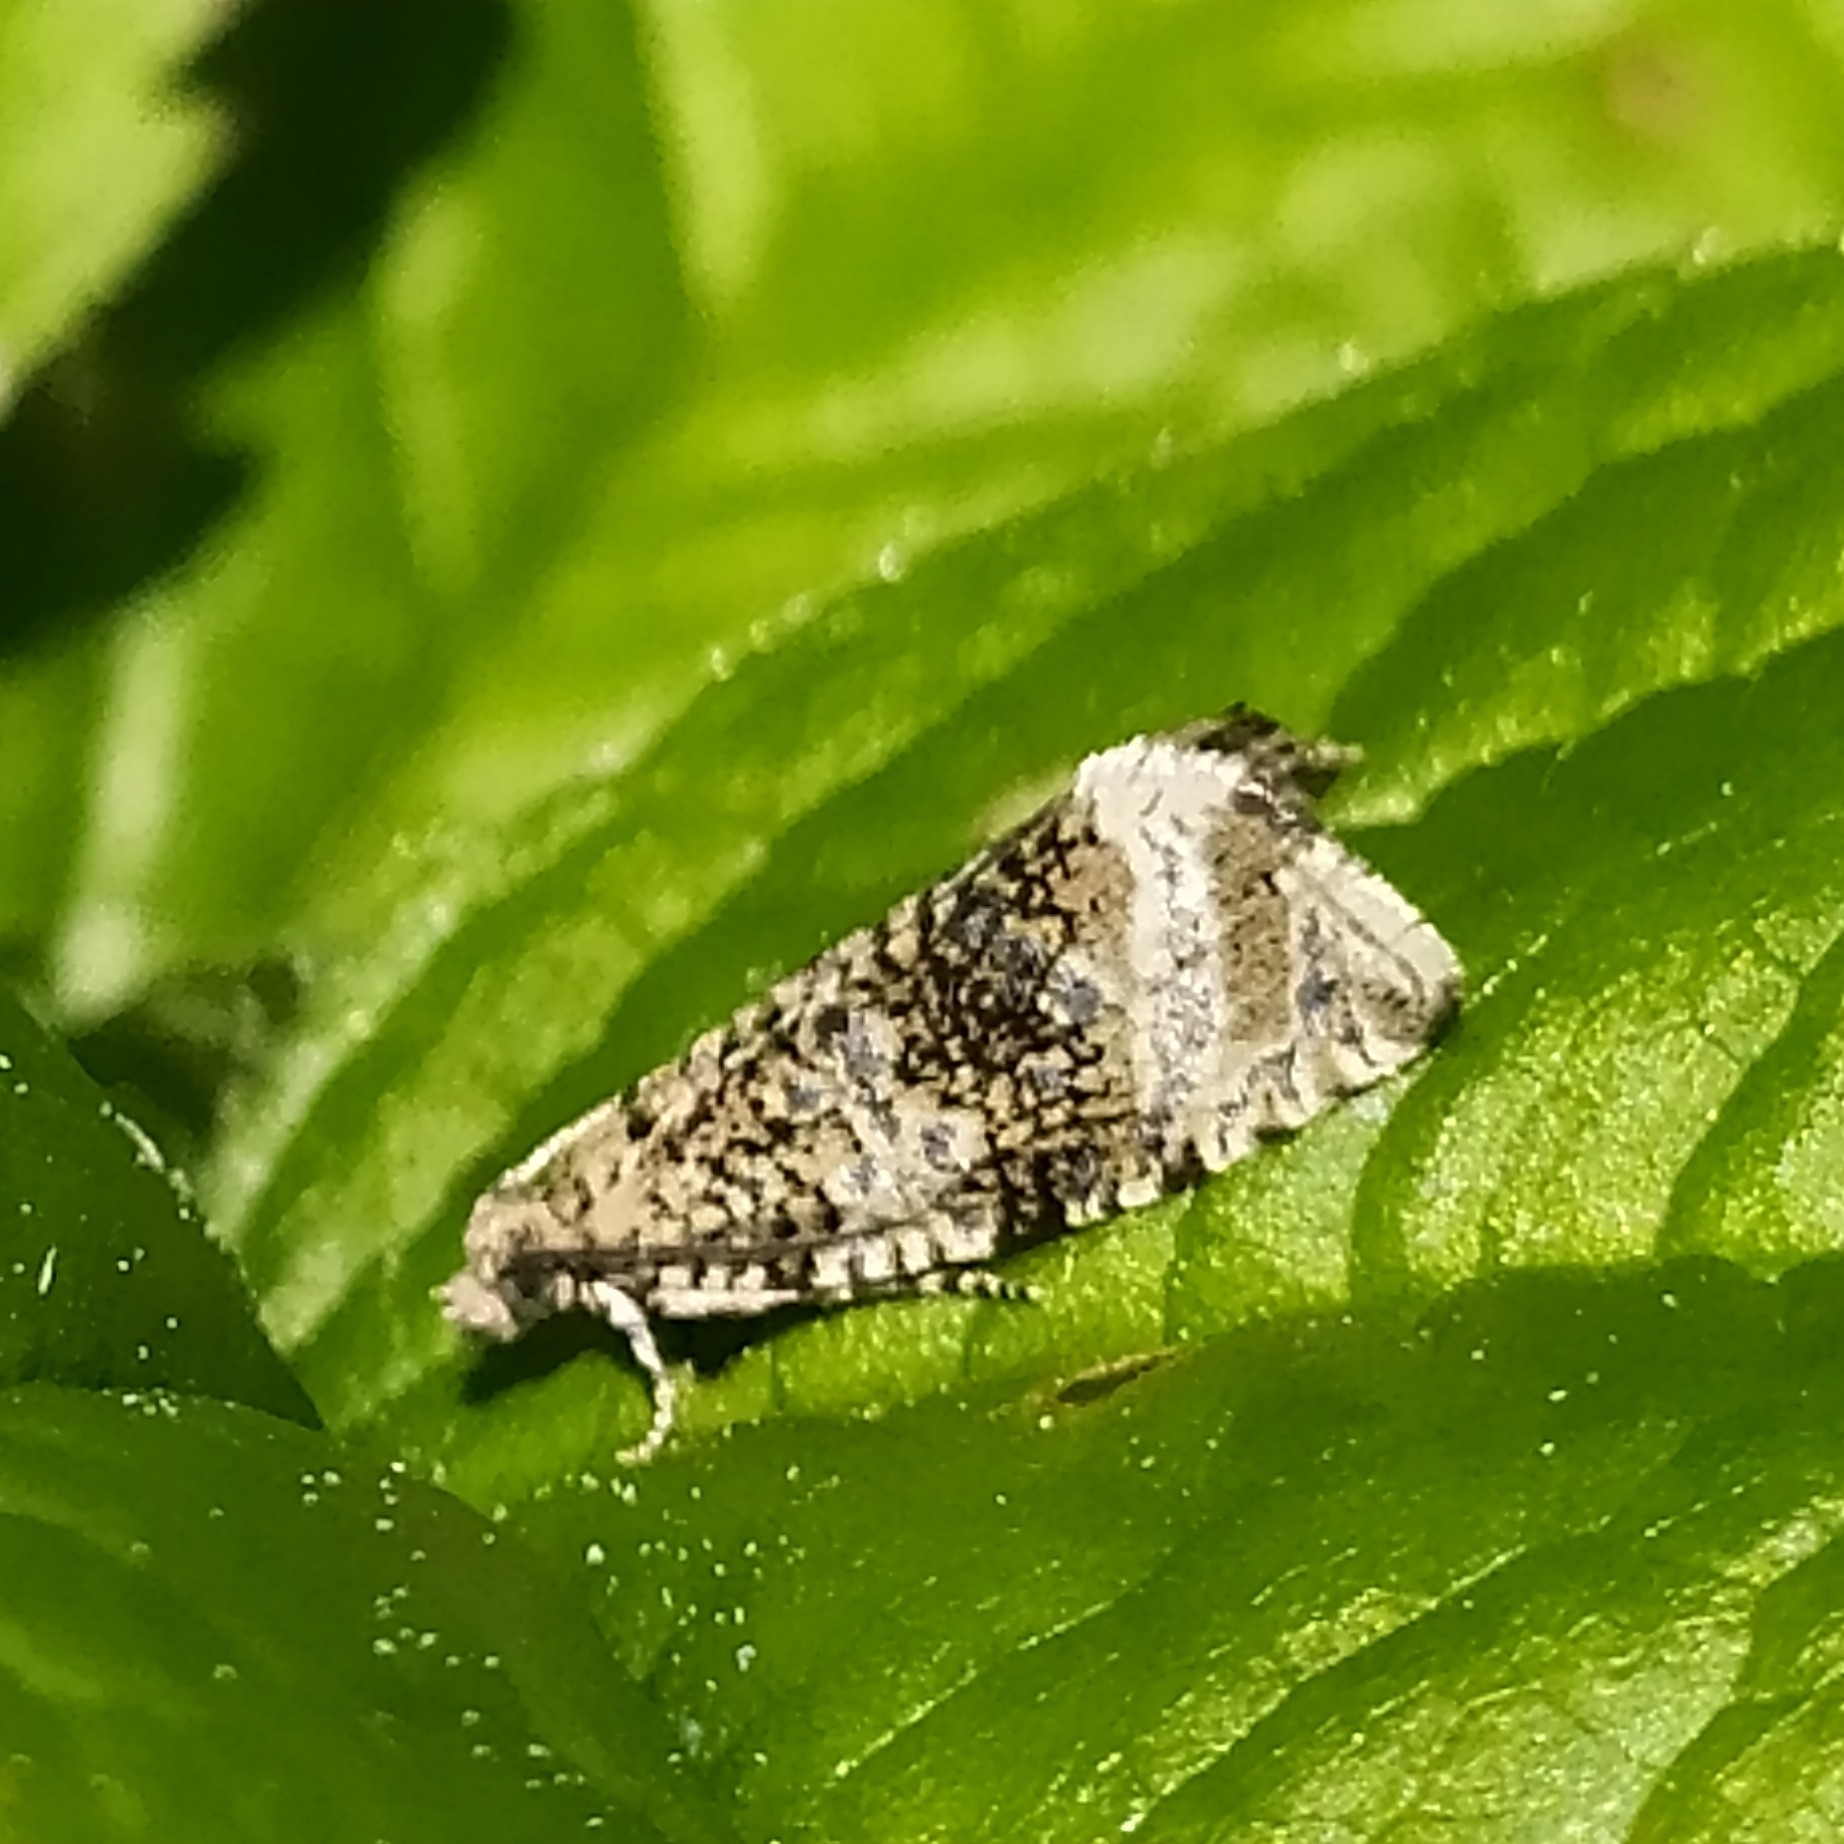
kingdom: Animalia
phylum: Arthropoda
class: Insecta
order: Lepidoptera
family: Tortricidae
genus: Syricoris
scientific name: Syricoris lacunana
